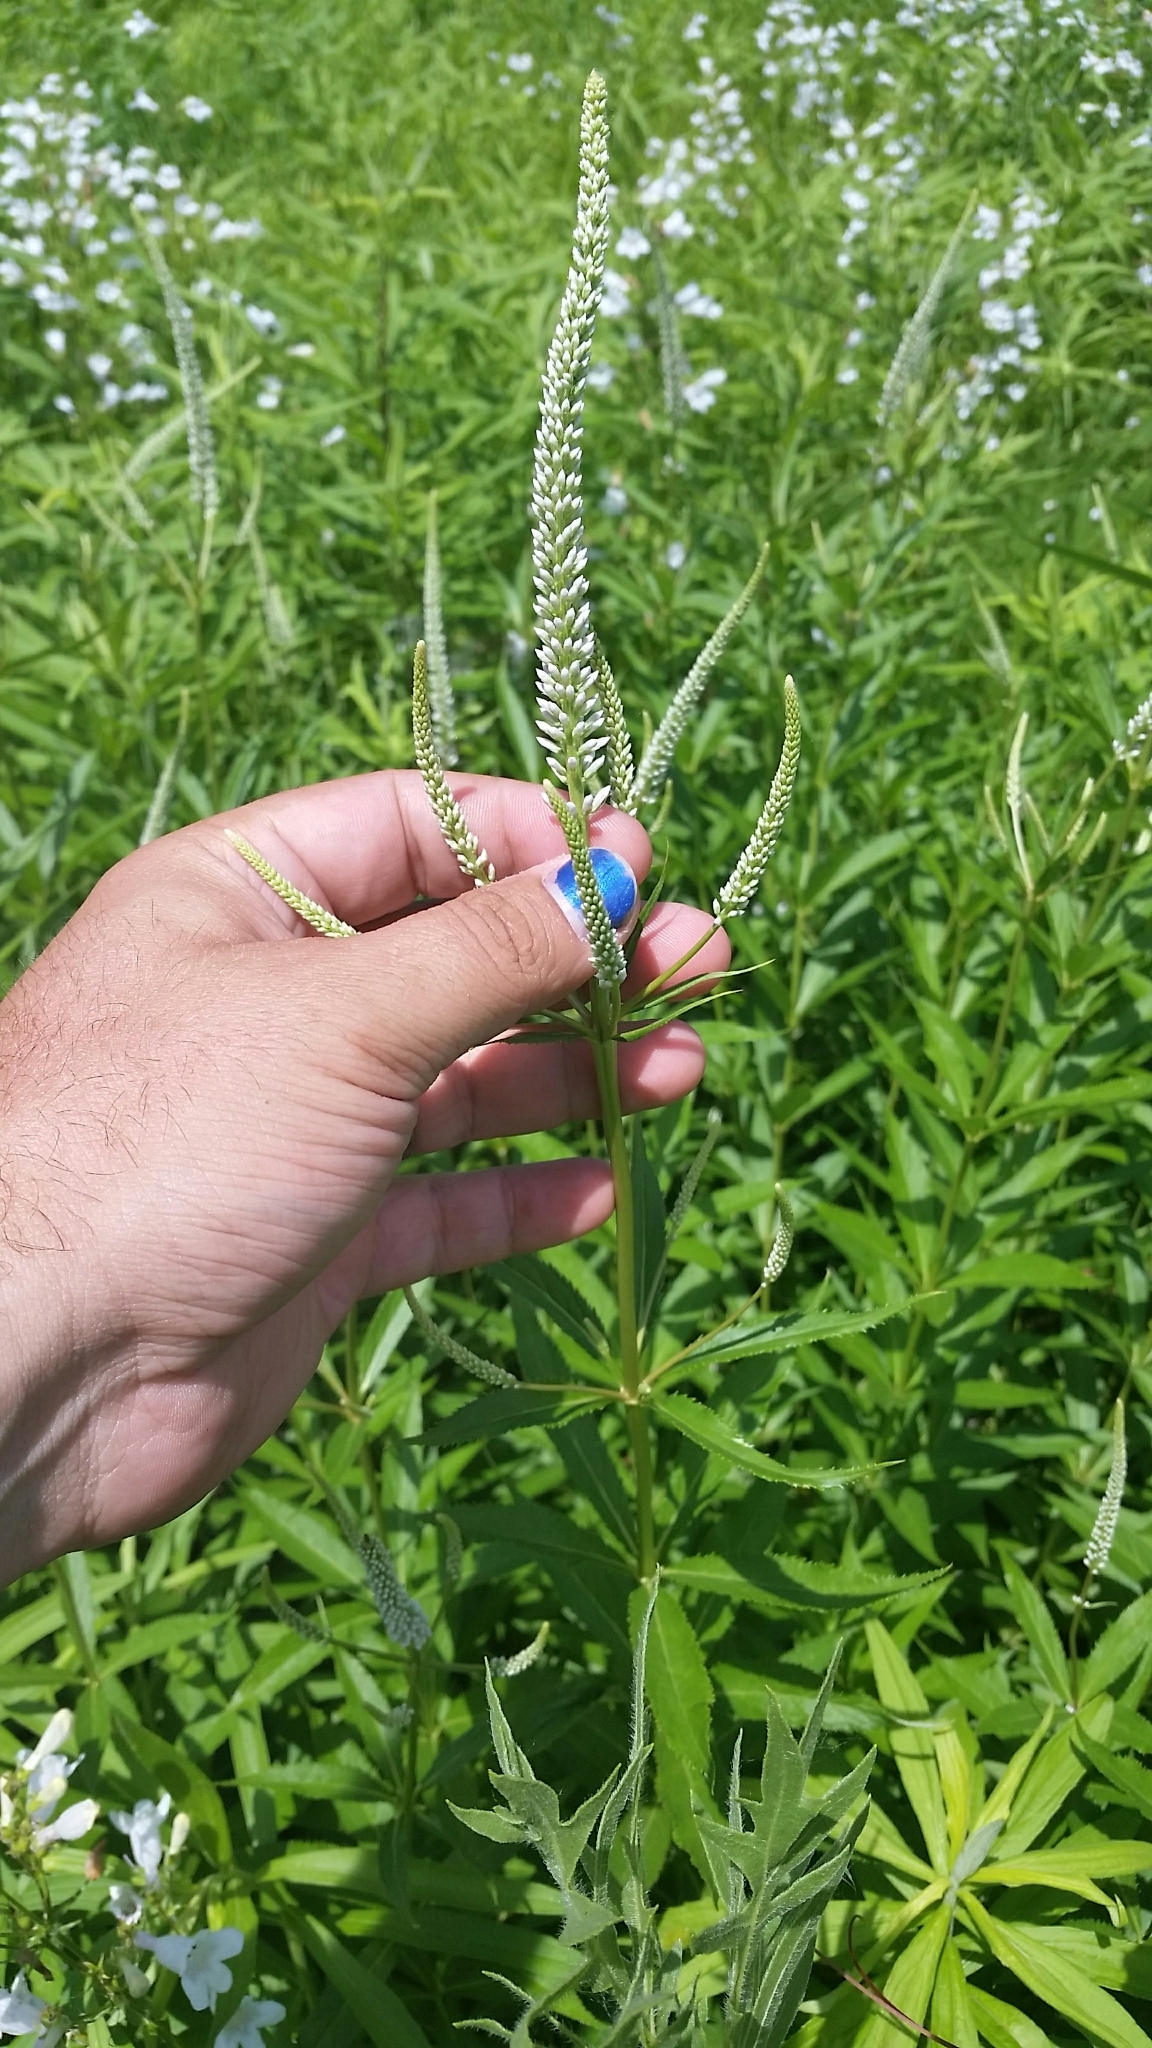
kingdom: Plantae
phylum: Tracheophyta
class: Magnoliopsida
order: Lamiales
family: Plantaginaceae
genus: Veronicastrum
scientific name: Veronicastrum virginicum
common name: Blackroot
